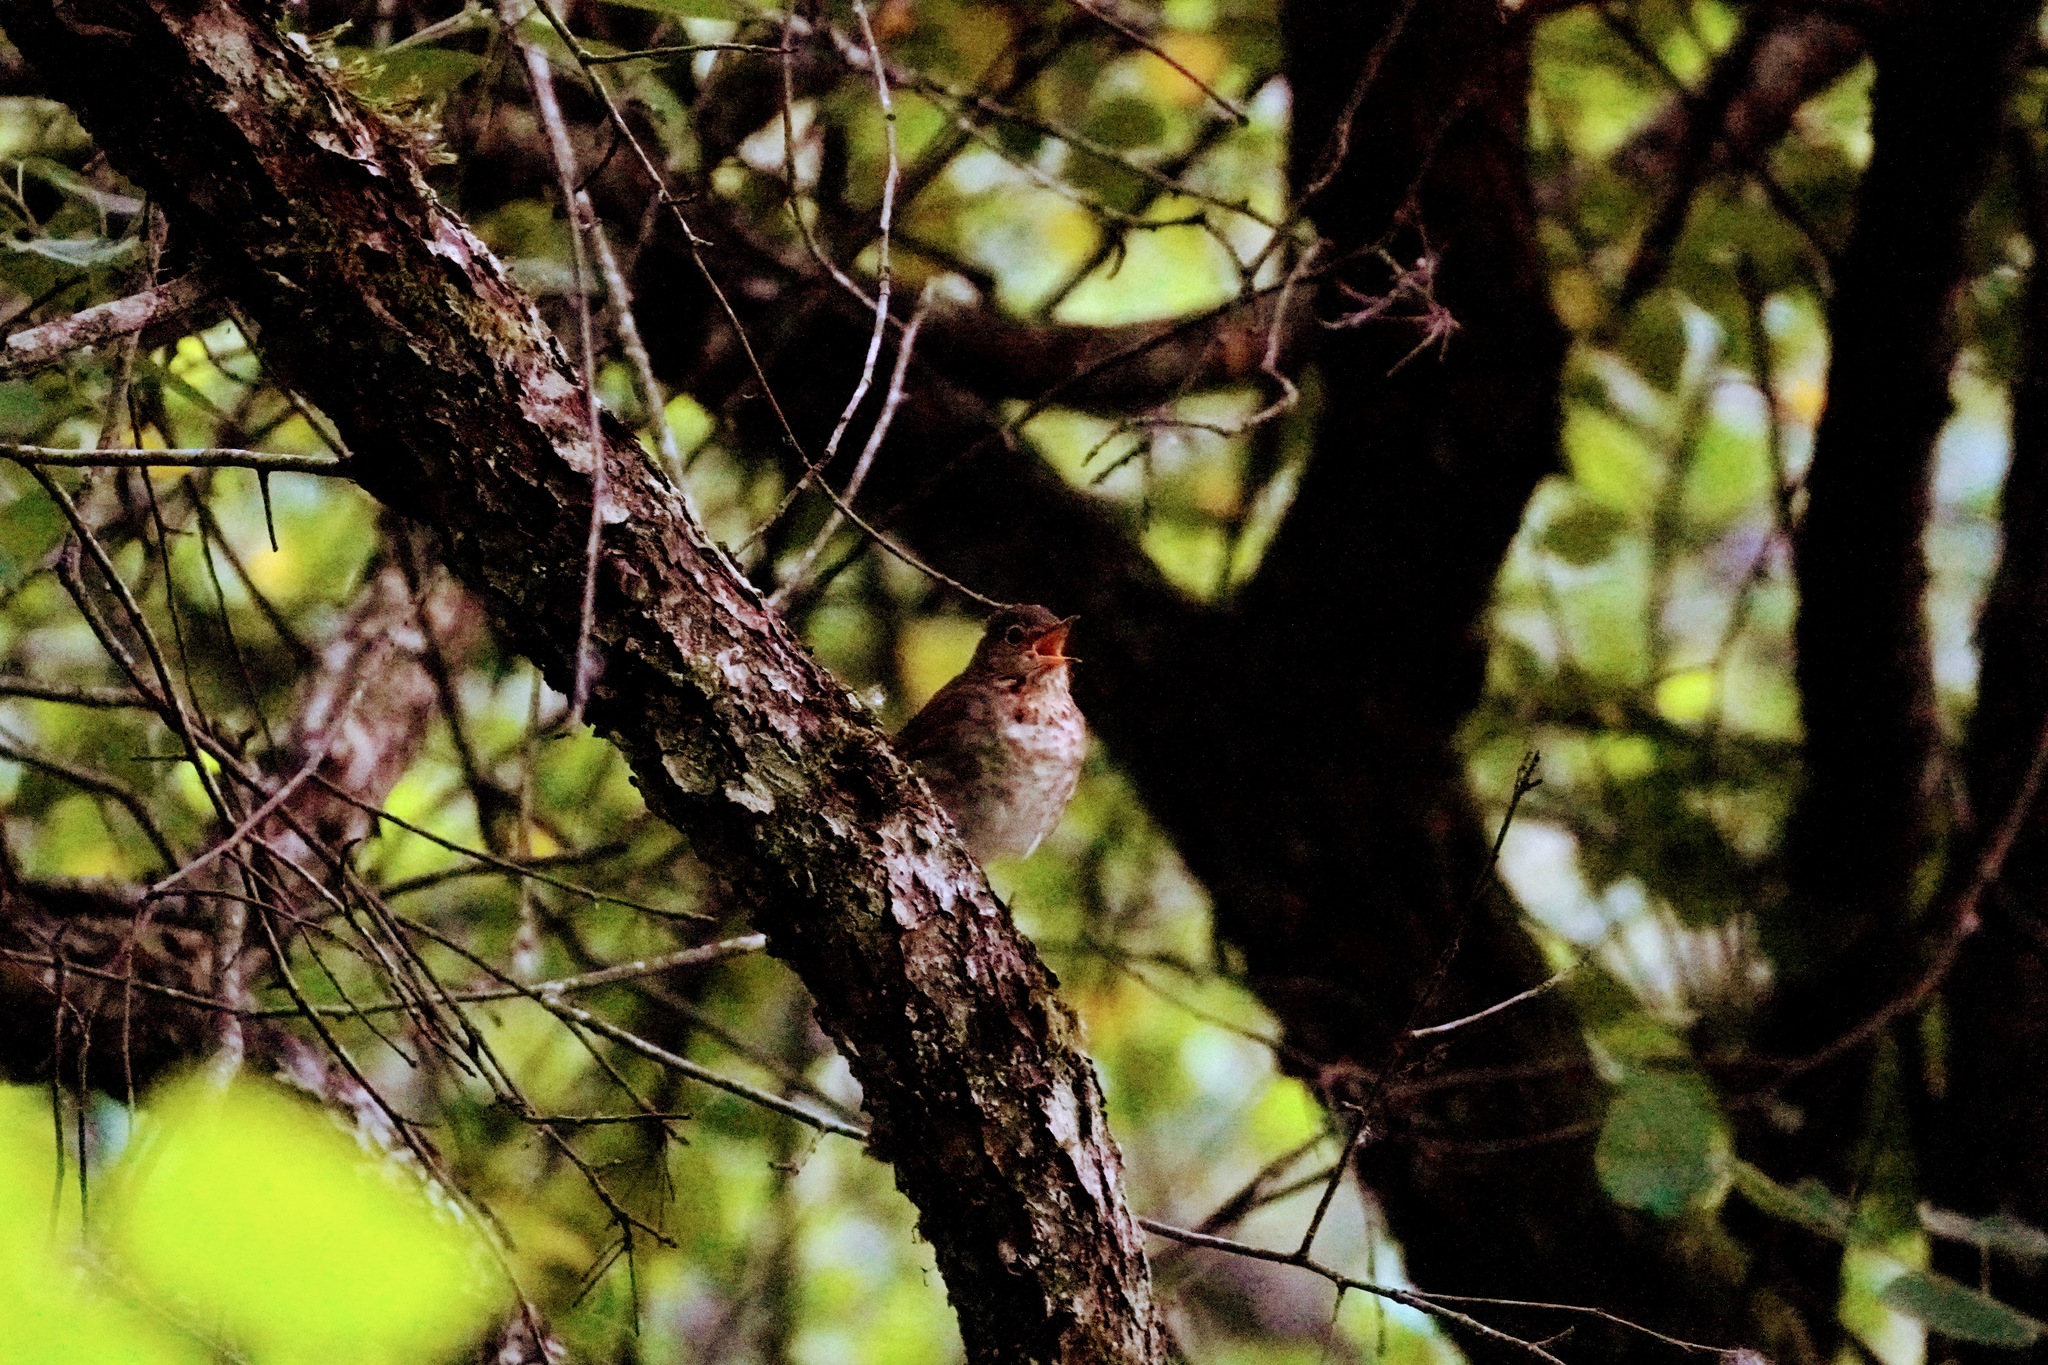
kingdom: Animalia
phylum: Chordata
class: Aves
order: Passeriformes
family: Turdidae
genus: Catharus
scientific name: Catharus ustulatus
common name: Swainson's thrush
